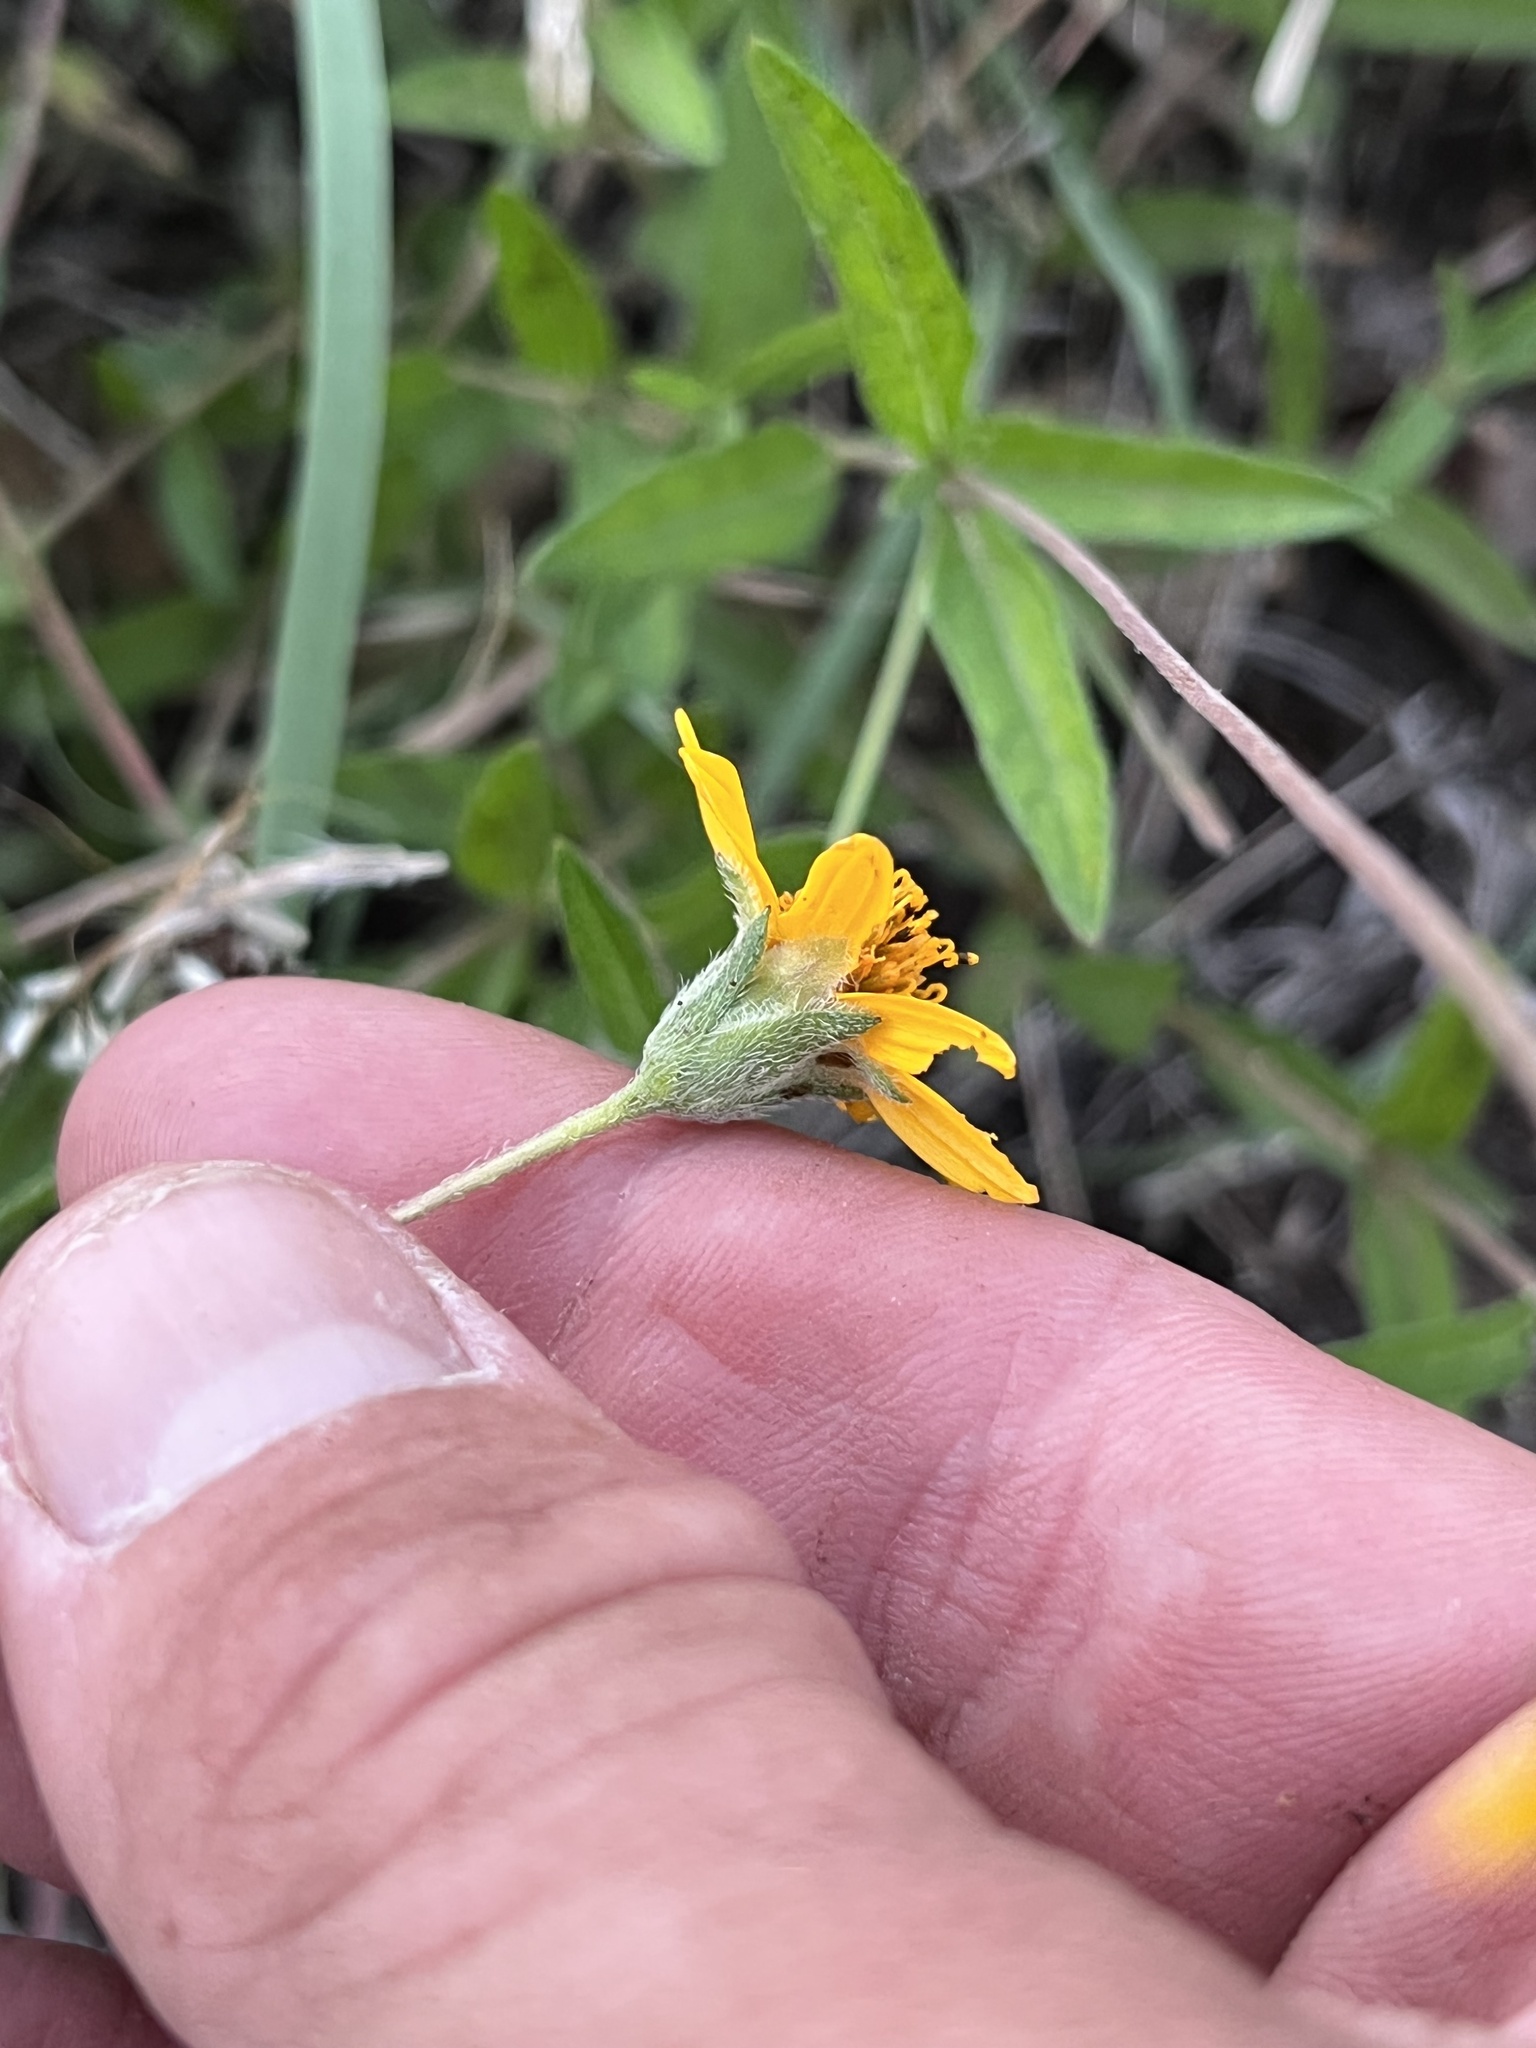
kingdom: Plantae
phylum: Tracheophyta
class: Magnoliopsida
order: Asterales
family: Asteraceae
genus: Wedelia
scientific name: Wedelia acapulcensis
